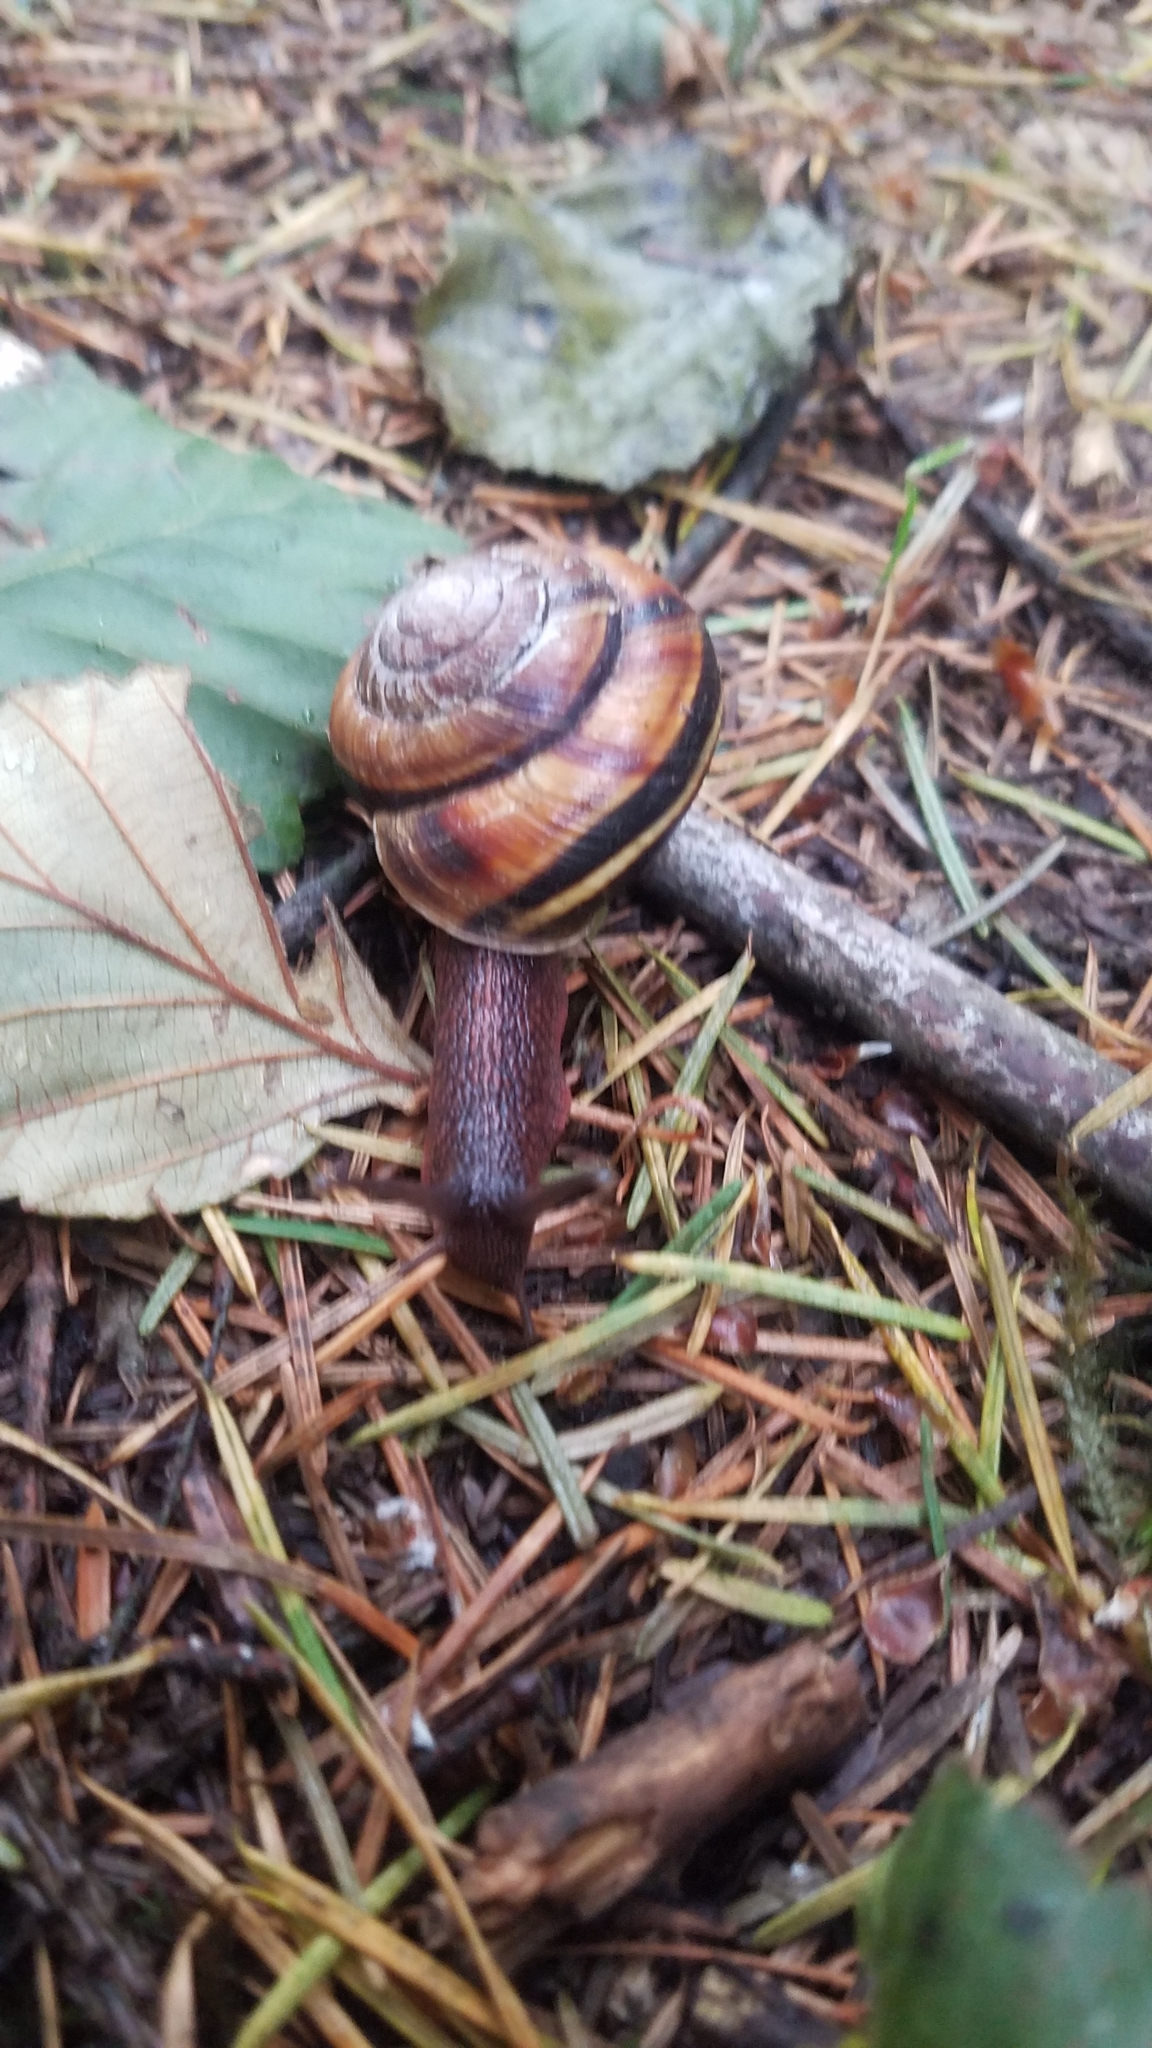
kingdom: Animalia
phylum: Mollusca
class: Gastropoda
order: Stylommatophora
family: Xanthonychidae
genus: Monadenia
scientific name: Monadenia fidelis
